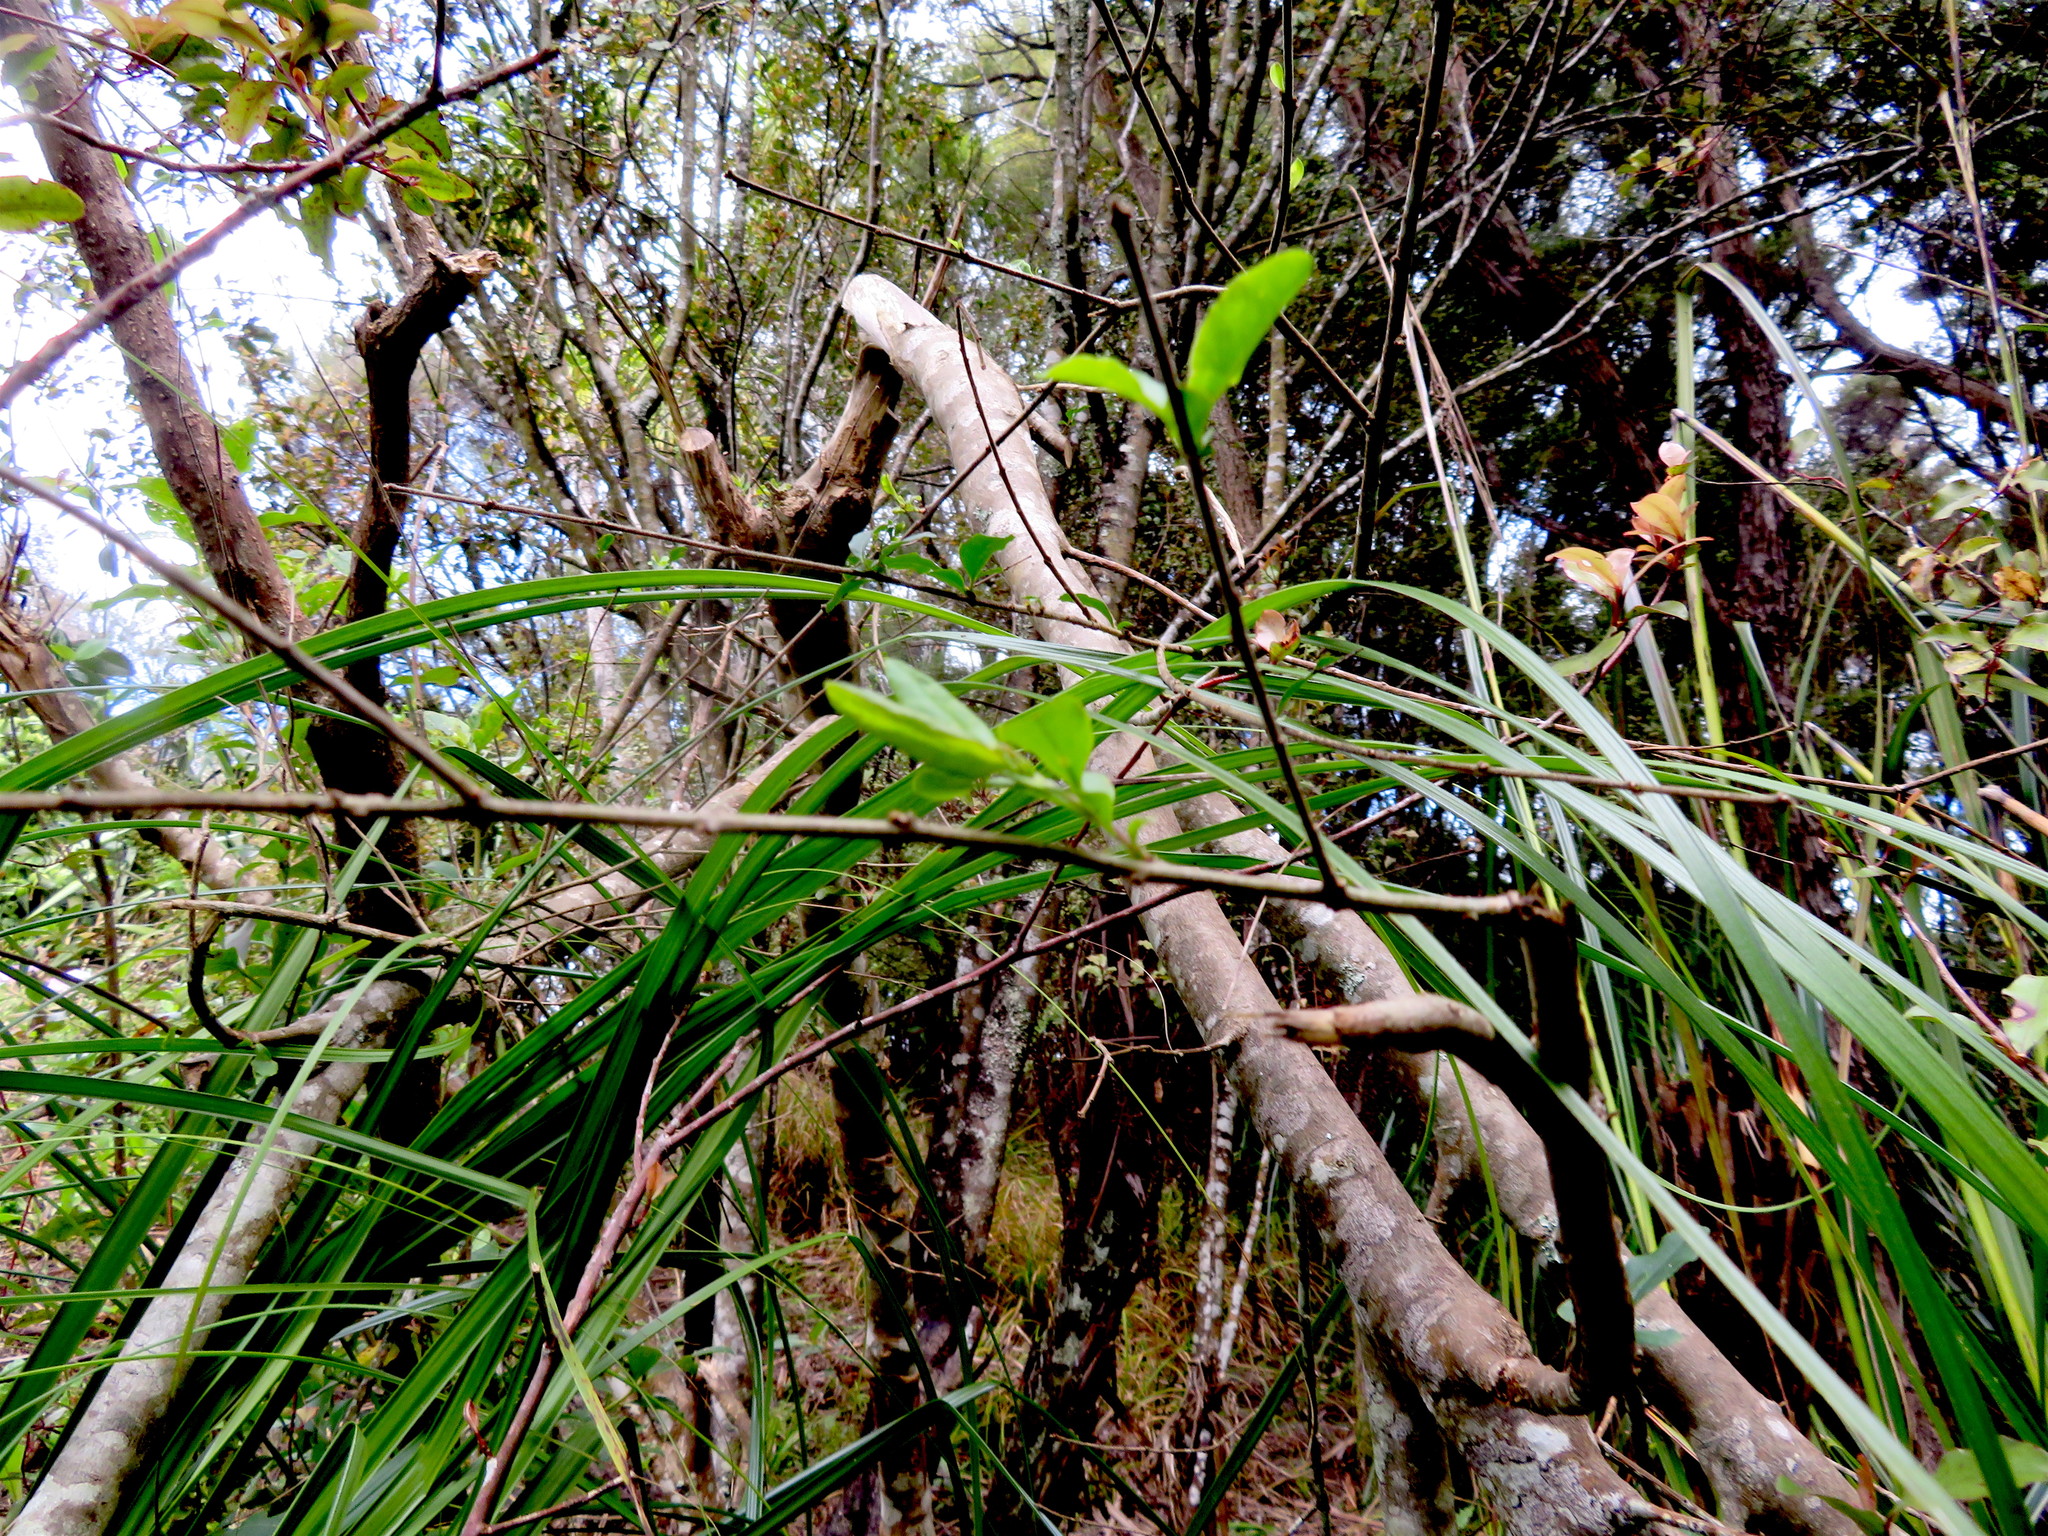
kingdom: Plantae
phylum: Tracheophyta
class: Magnoliopsida
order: Lamiales
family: Oleaceae
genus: Ligustrum
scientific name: Ligustrum sinense
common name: Chinese privet
